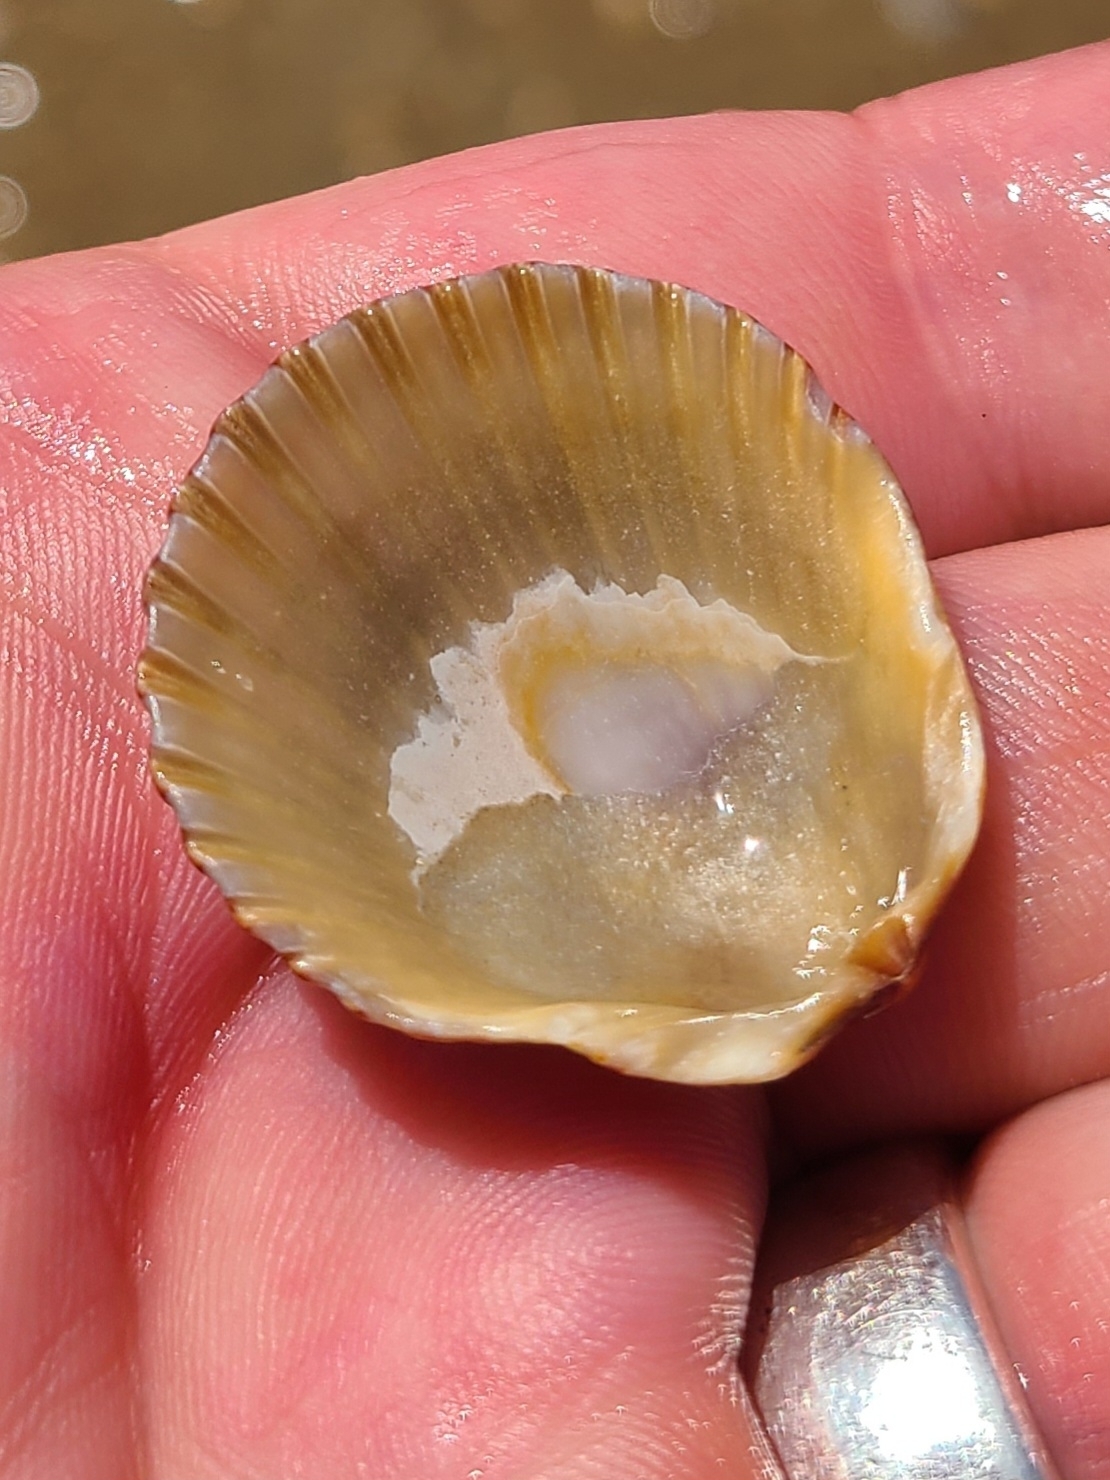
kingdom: Animalia
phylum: Mollusca
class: Bivalvia
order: Pectinida
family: Pectinidae
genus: Argopecten
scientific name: Argopecten irradians
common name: Atlantic bay scallop
